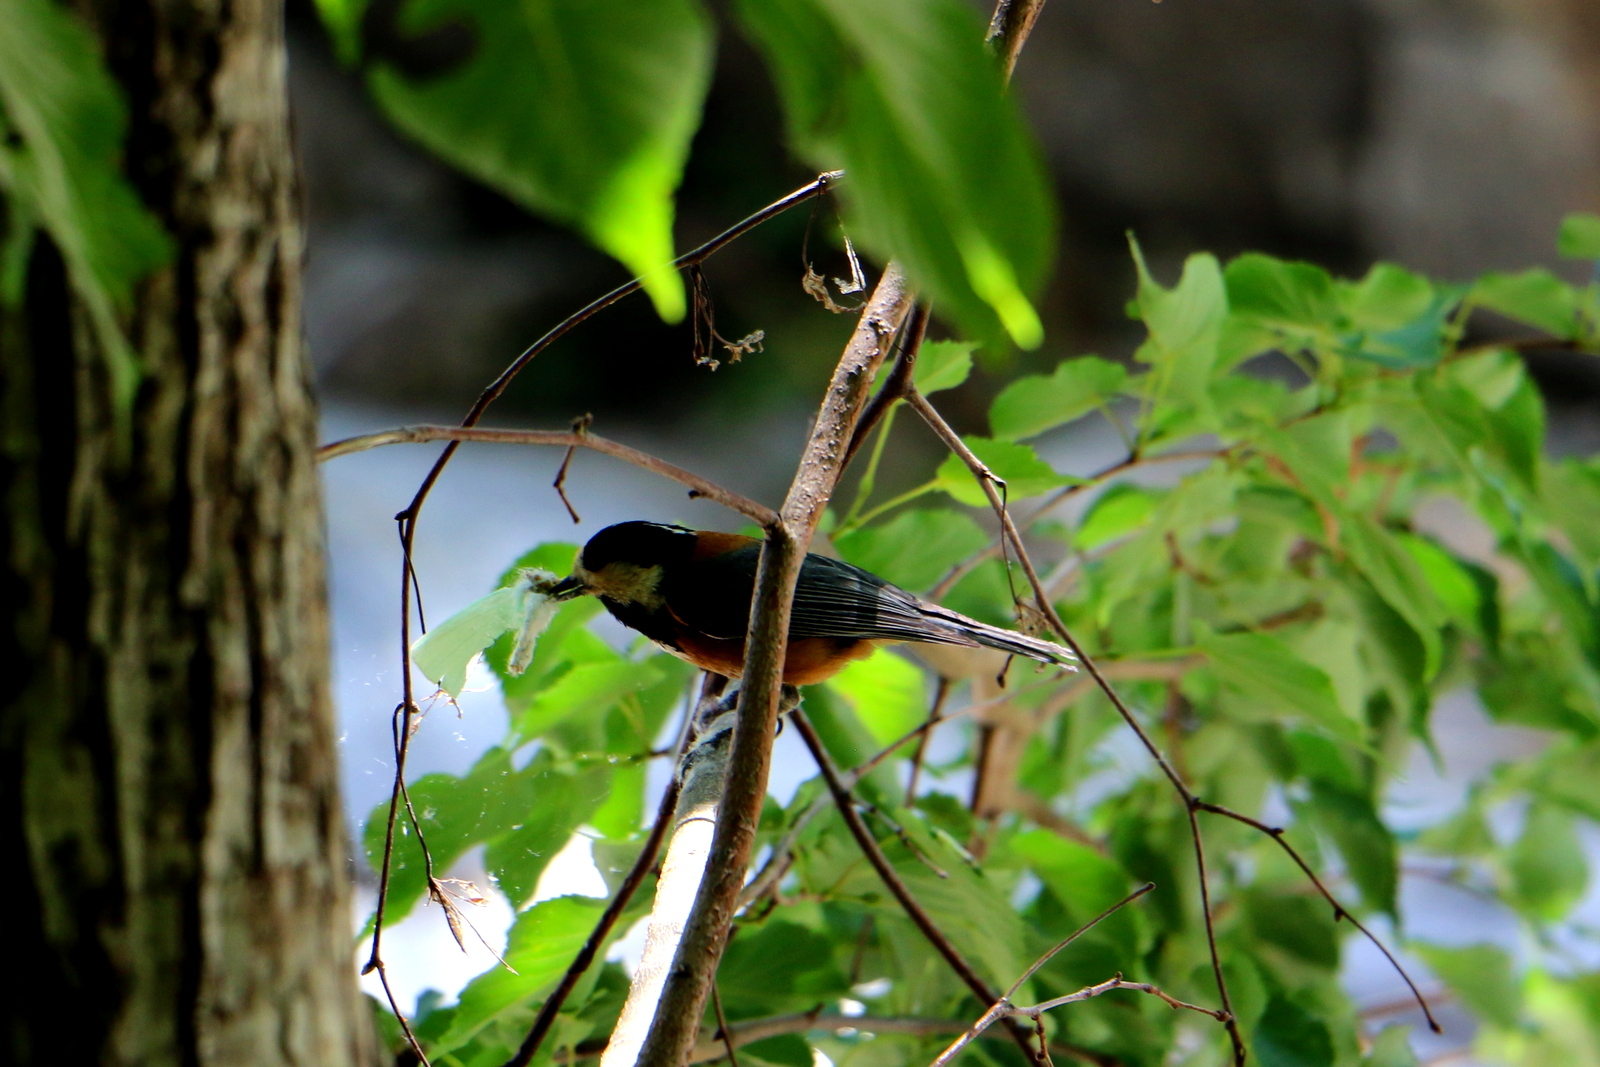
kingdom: Animalia
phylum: Chordata
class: Aves
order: Passeriformes
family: Paridae
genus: Poecile
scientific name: Poecile varius
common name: Varied tit
